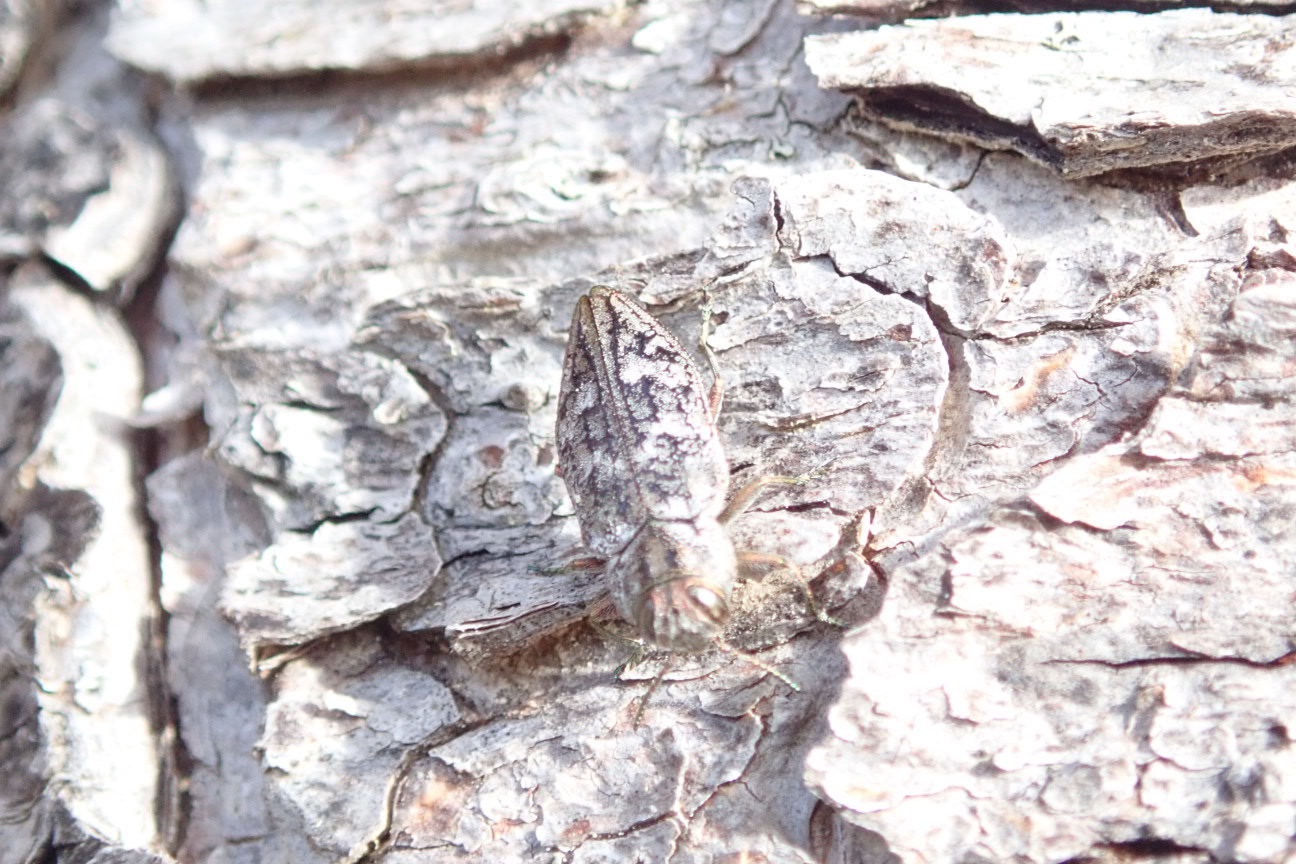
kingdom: Animalia
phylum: Arthropoda
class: Insecta
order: Coleoptera
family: Buprestidae
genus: Chrysobothris
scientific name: Chrysobothris scabripennis
